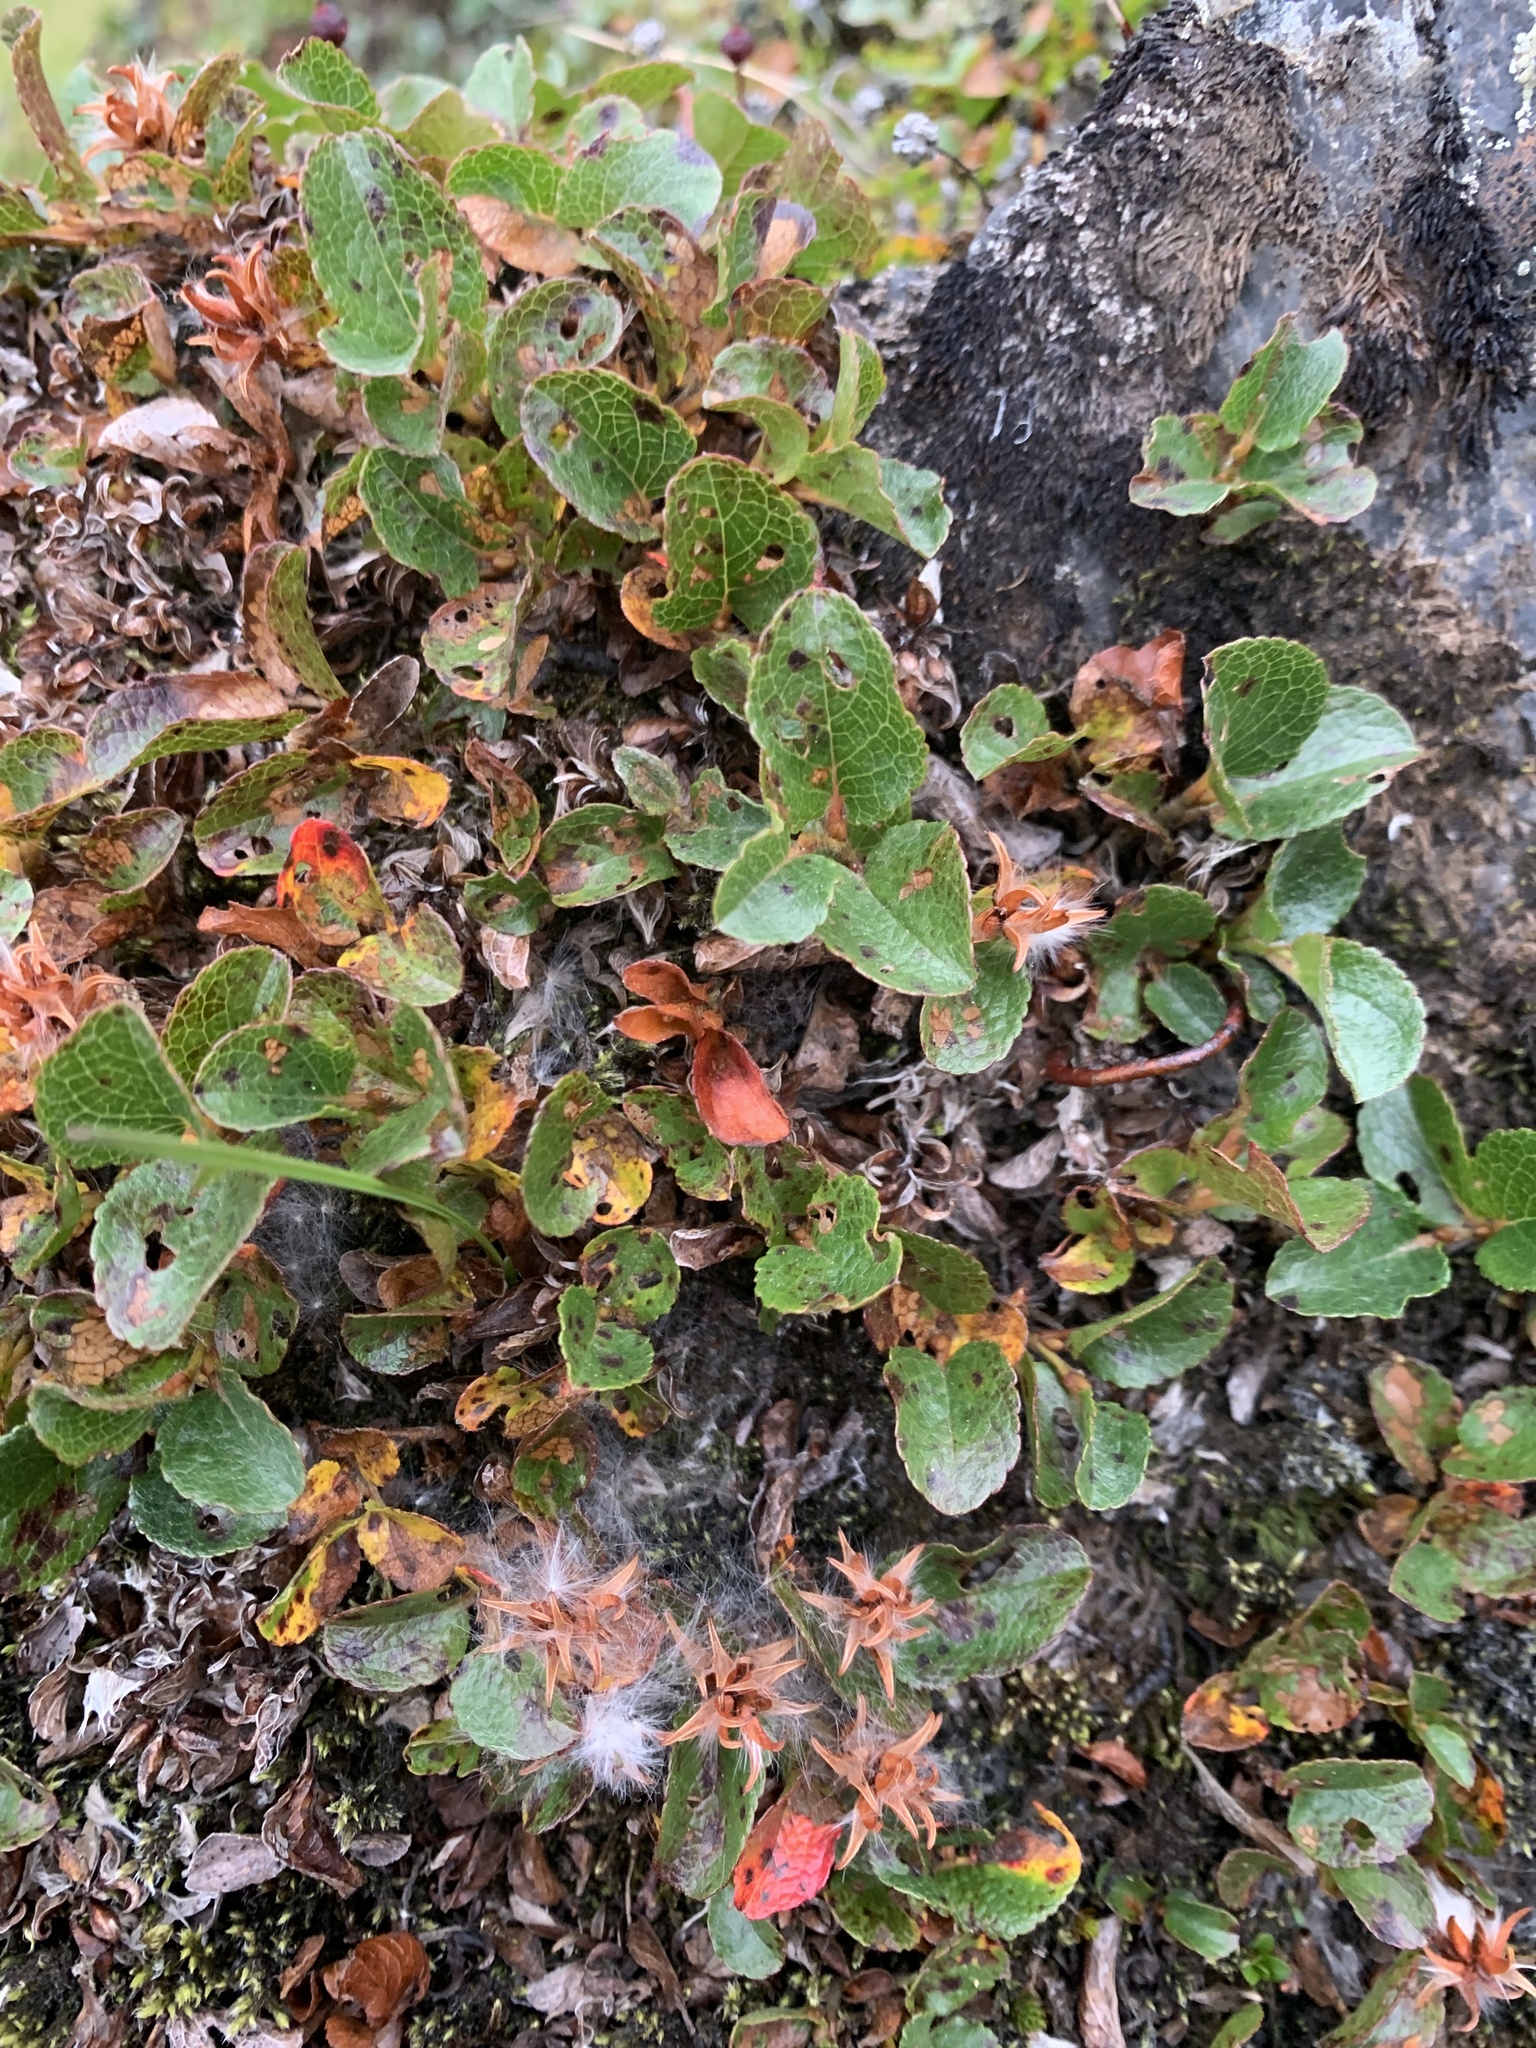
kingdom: Plantae
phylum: Tracheophyta
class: Magnoliopsida
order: Malpighiales
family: Salicaceae
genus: Salix
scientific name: Salix herbacea
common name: Dwarf willow
